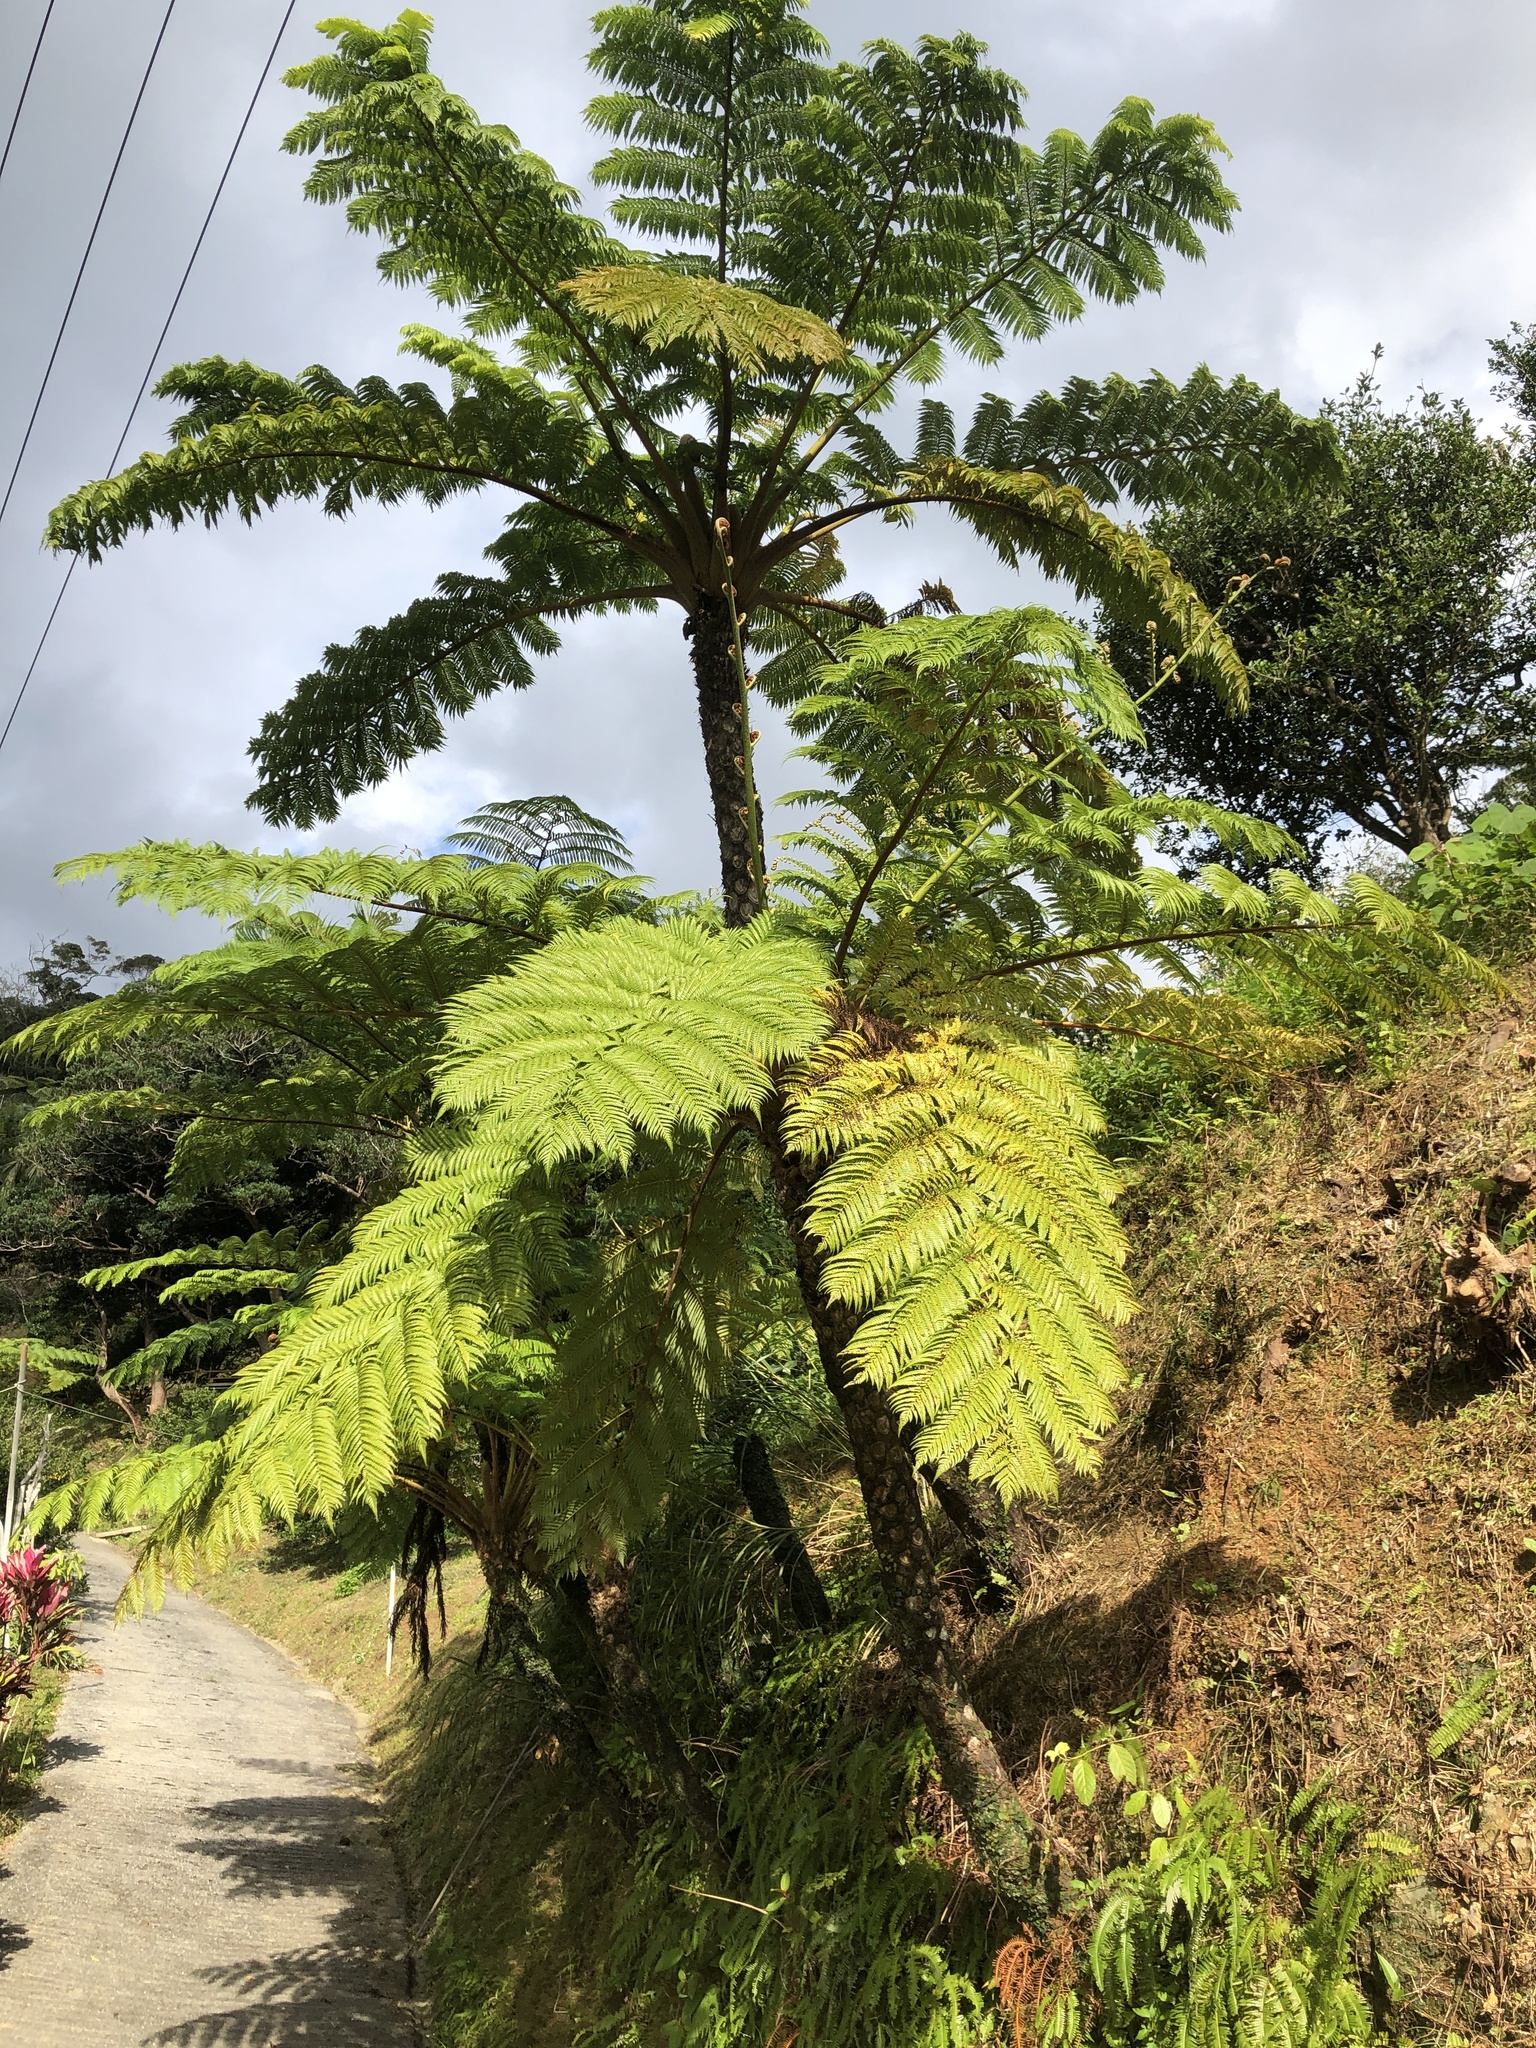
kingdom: Plantae
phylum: Tracheophyta
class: Polypodiopsida
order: Cyatheales
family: Cyatheaceae
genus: Alsophila
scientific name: Alsophila lepifera
